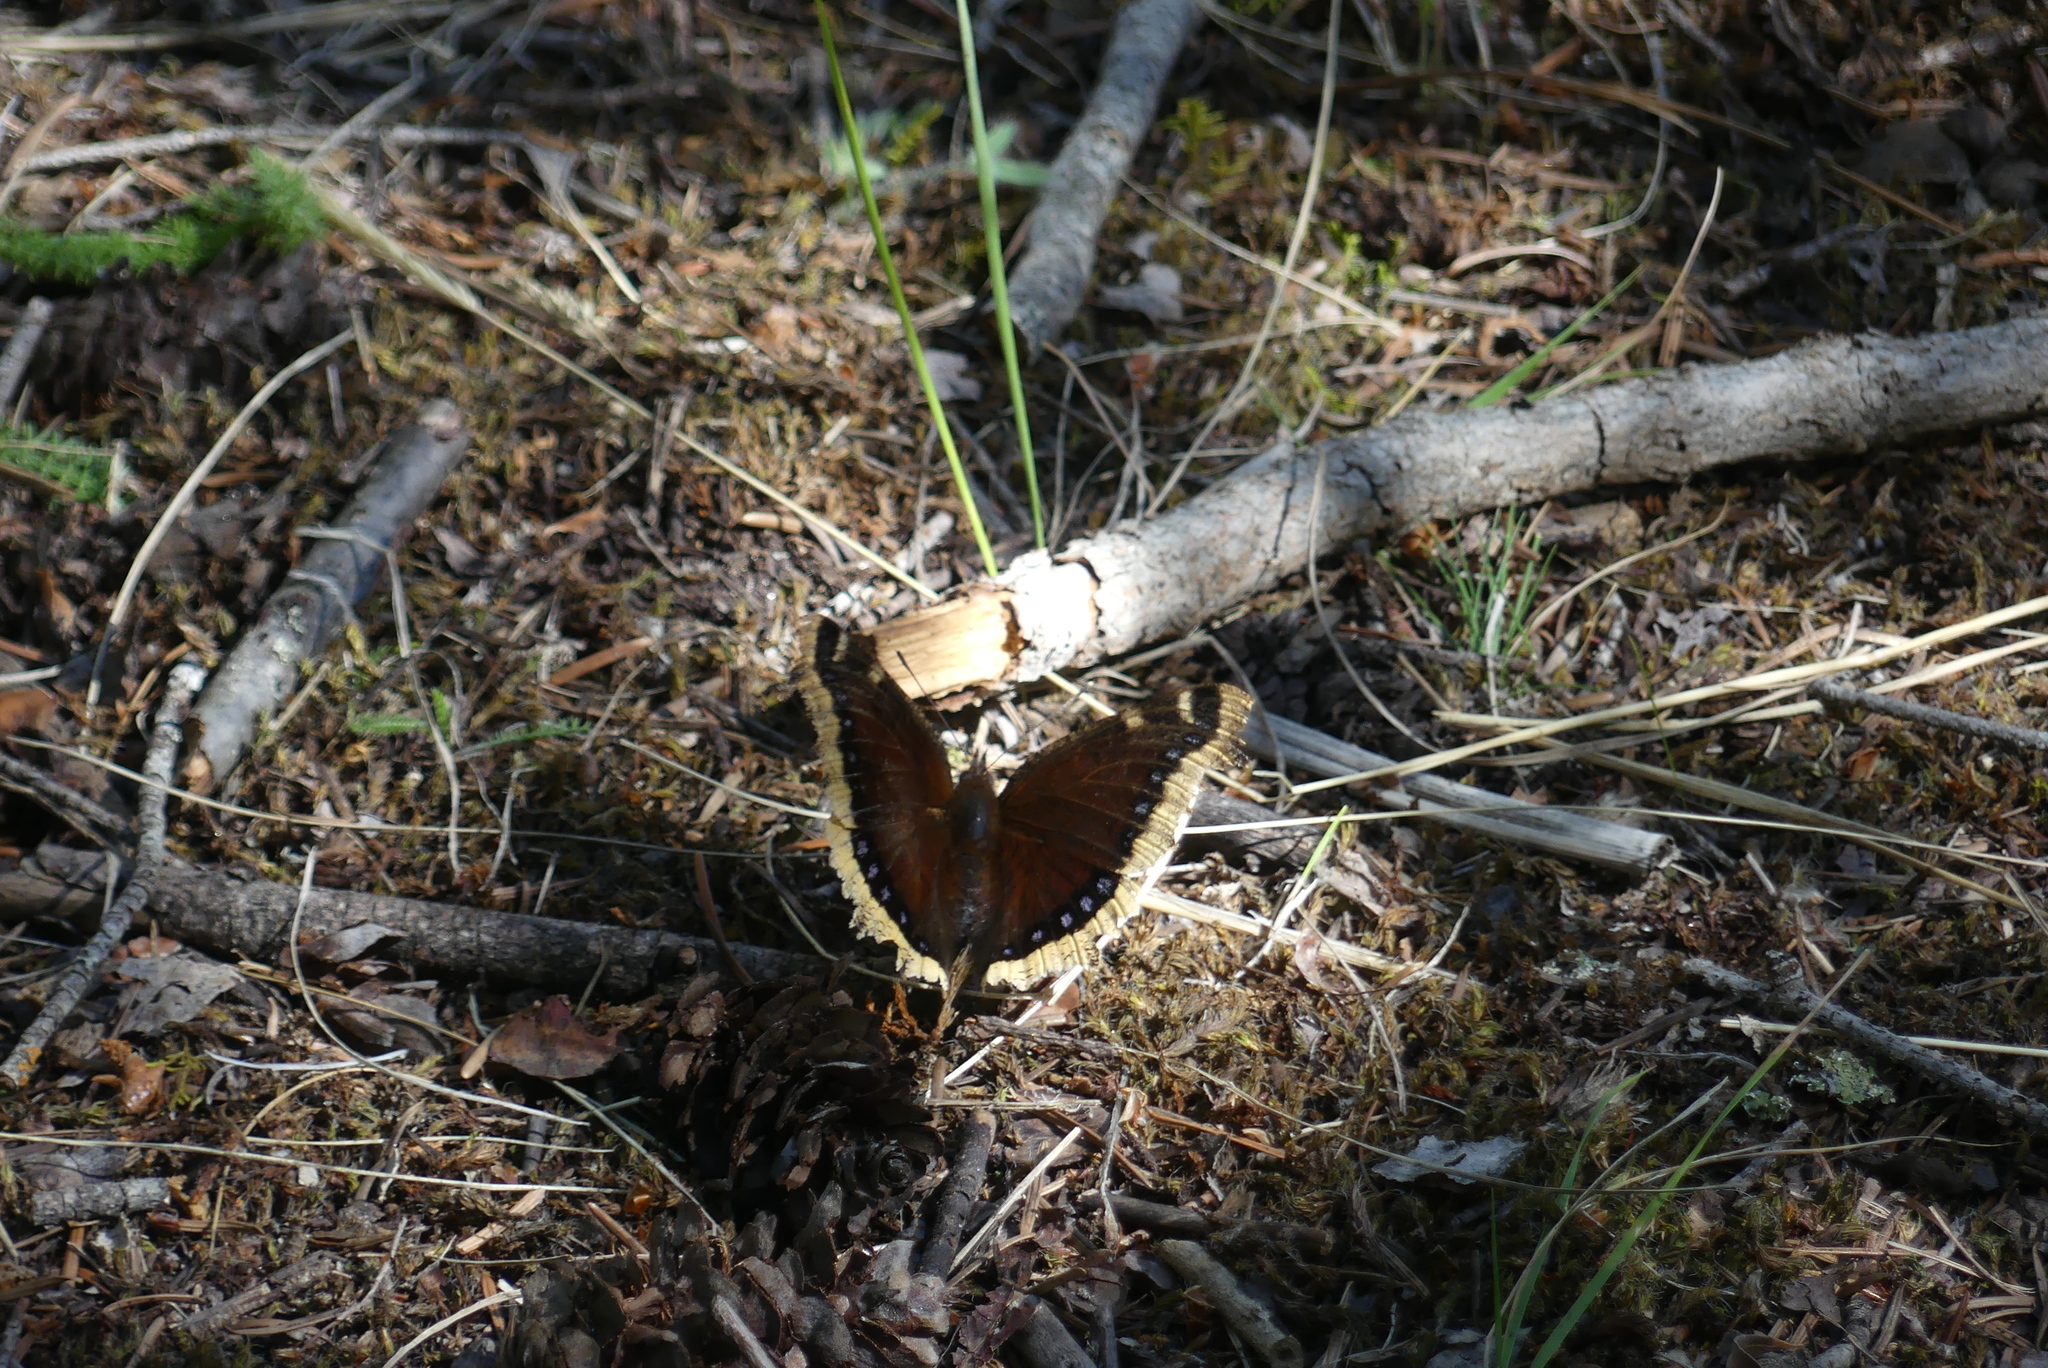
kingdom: Animalia
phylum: Arthropoda
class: Insecta
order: Lepidoptera
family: Nymphalidae
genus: Nymphalis
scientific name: Nymphalis antiopa
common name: Camberwell beauty
